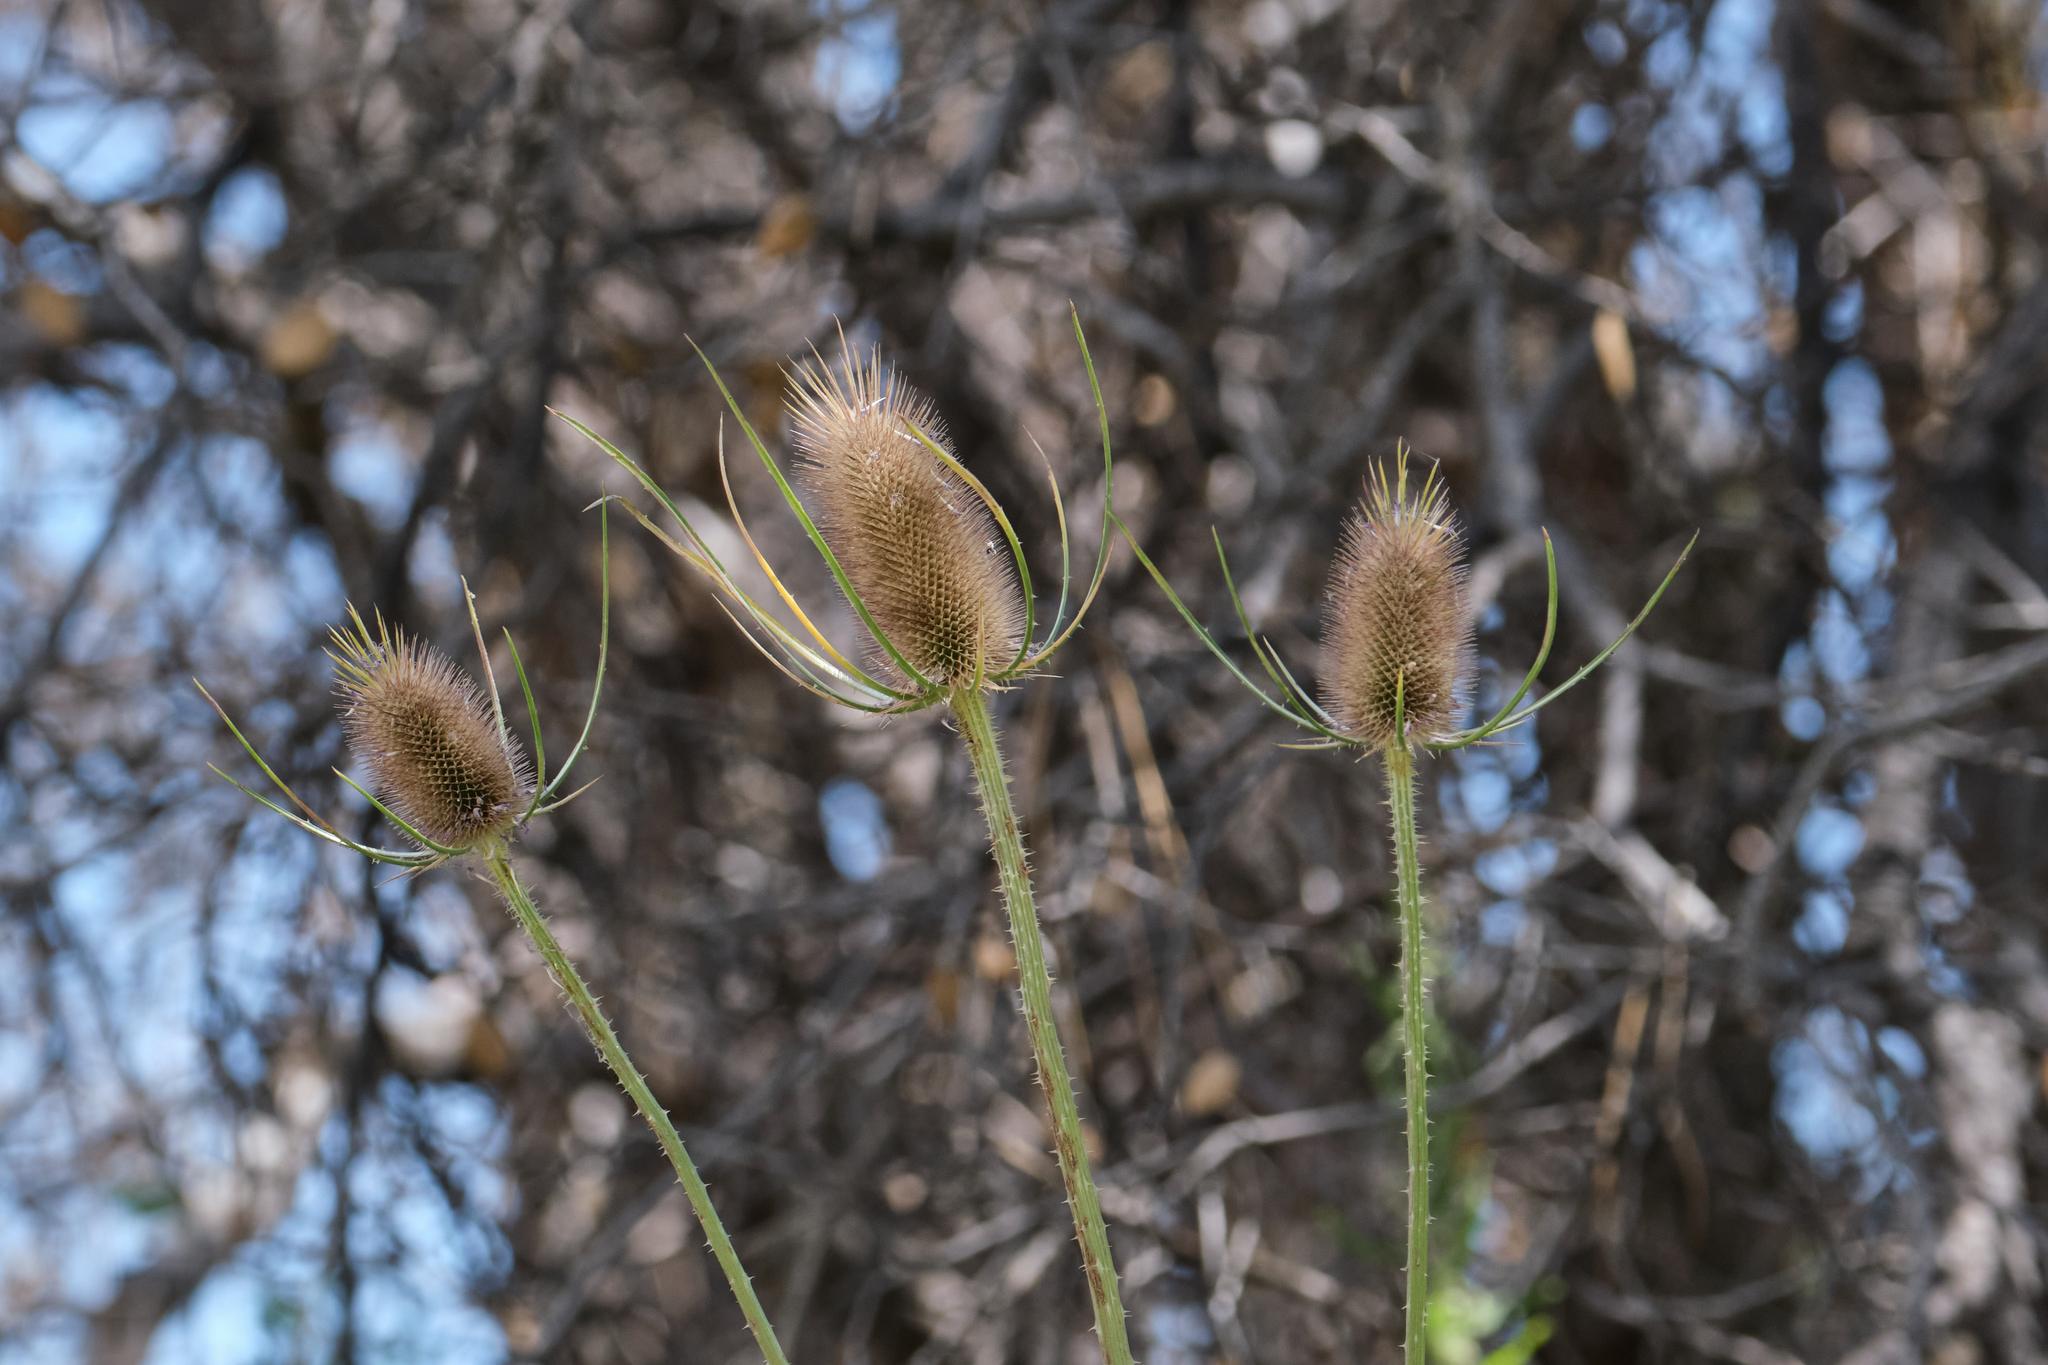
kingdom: Plantae
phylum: Tracheophyta
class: Magnoliopsida
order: Dipsacales
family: Caprifoliaceae
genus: Dipsacus
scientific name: Dipsacus fullonum
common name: Teasel
